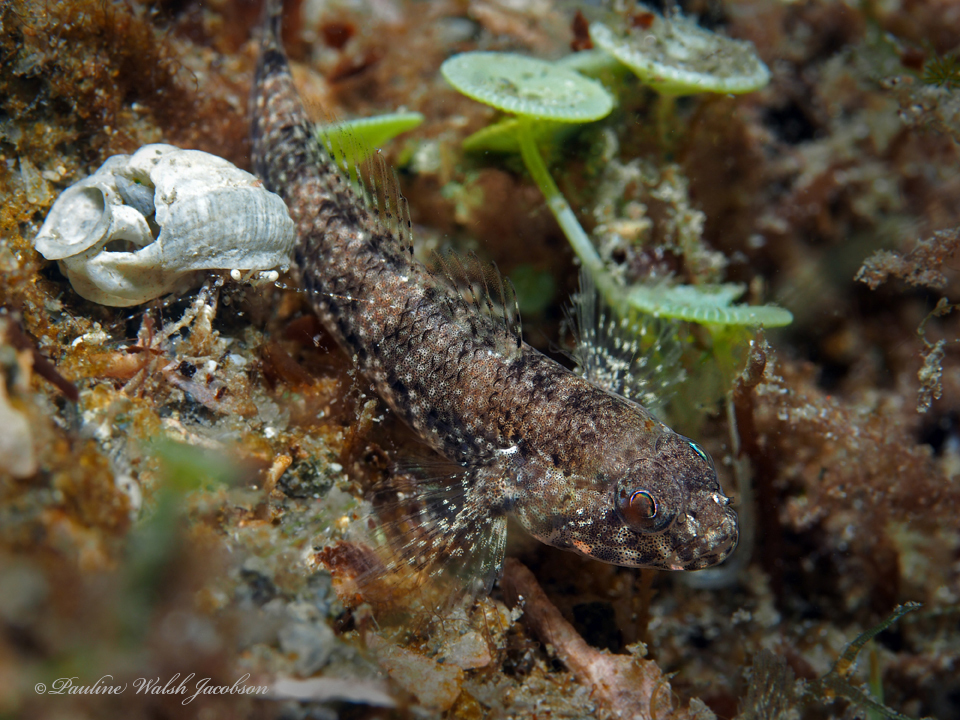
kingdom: Animalia
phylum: Chordata
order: Perciformes
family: Gobiidae
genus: Bathygobius
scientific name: Bathygobius mystacium
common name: Island frillfin
